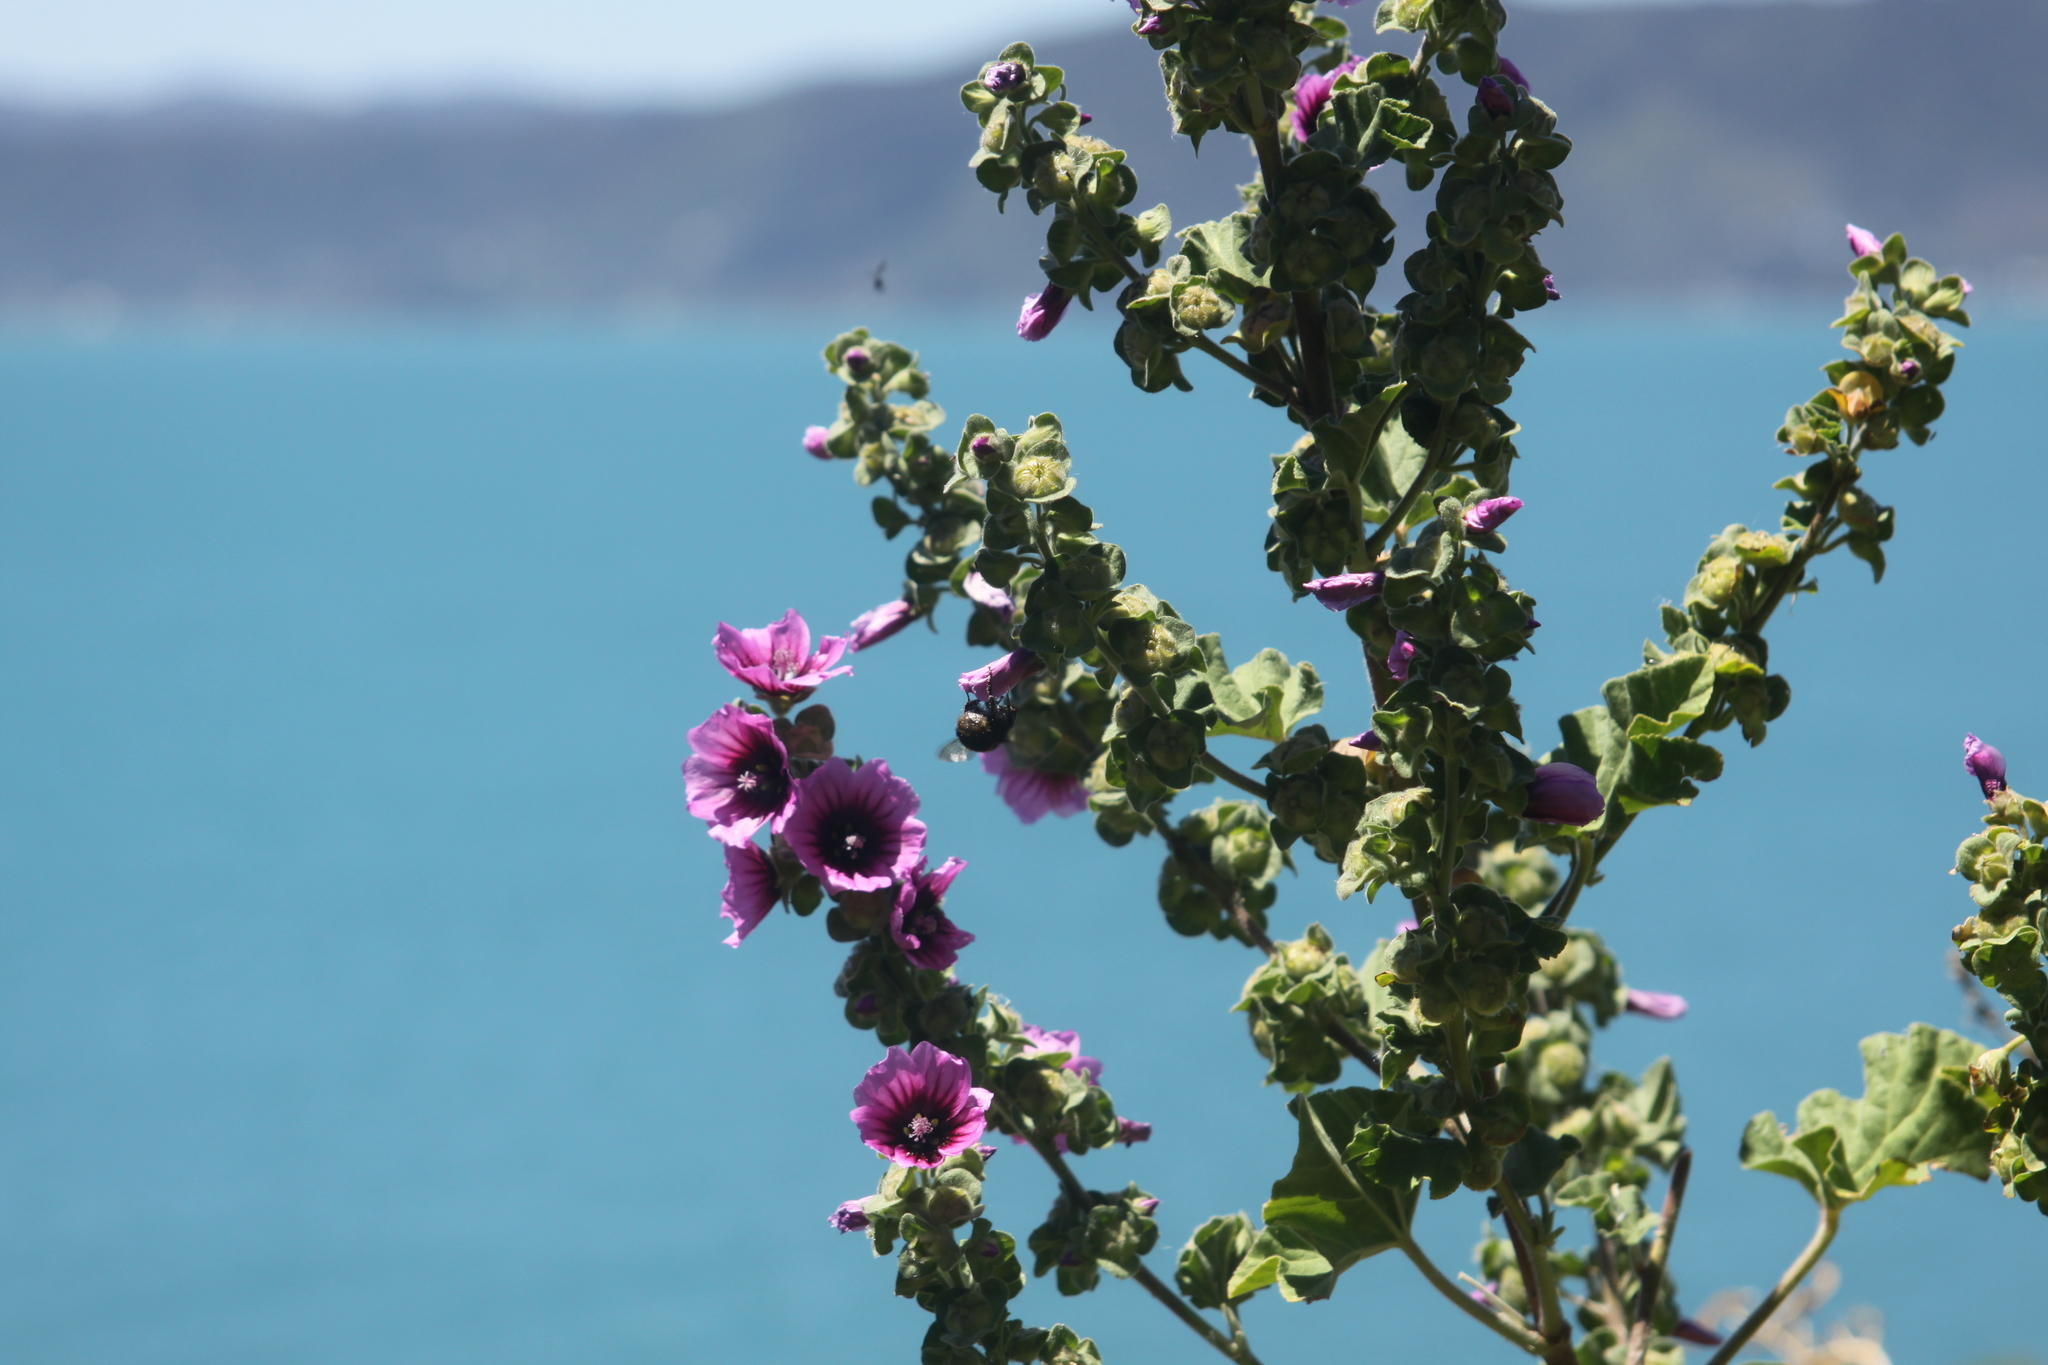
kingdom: Plantae
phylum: Tracheophyta
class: Magnoliopsida
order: Malvales
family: Malvaceae
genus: Malva
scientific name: Malva arborea
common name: Tree mallow
